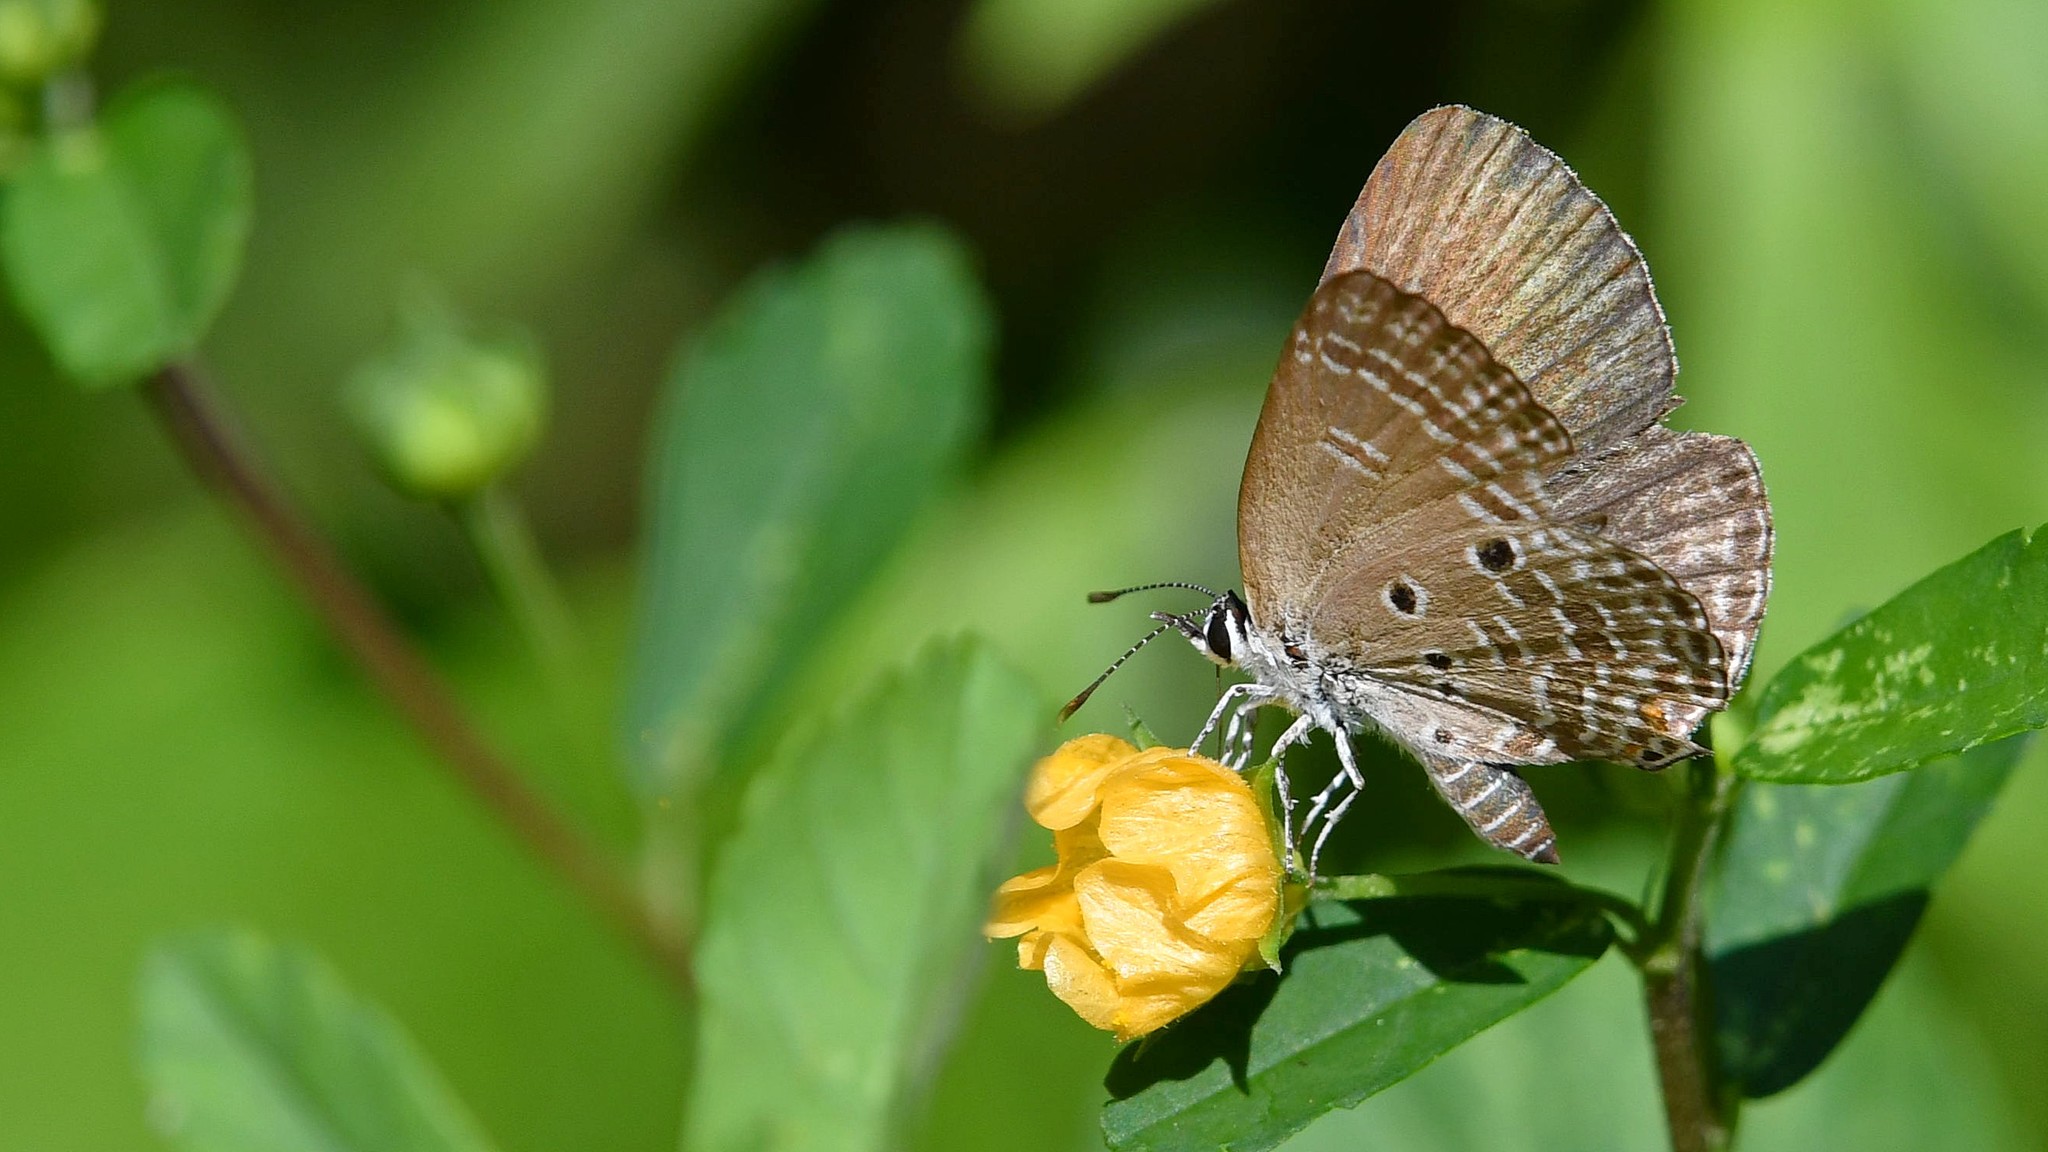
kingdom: Animalia
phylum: Arthropoda
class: Insecta
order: Lepidoptera
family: Lycaenidae
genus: Luthrodes
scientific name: Luthrodes pandava
